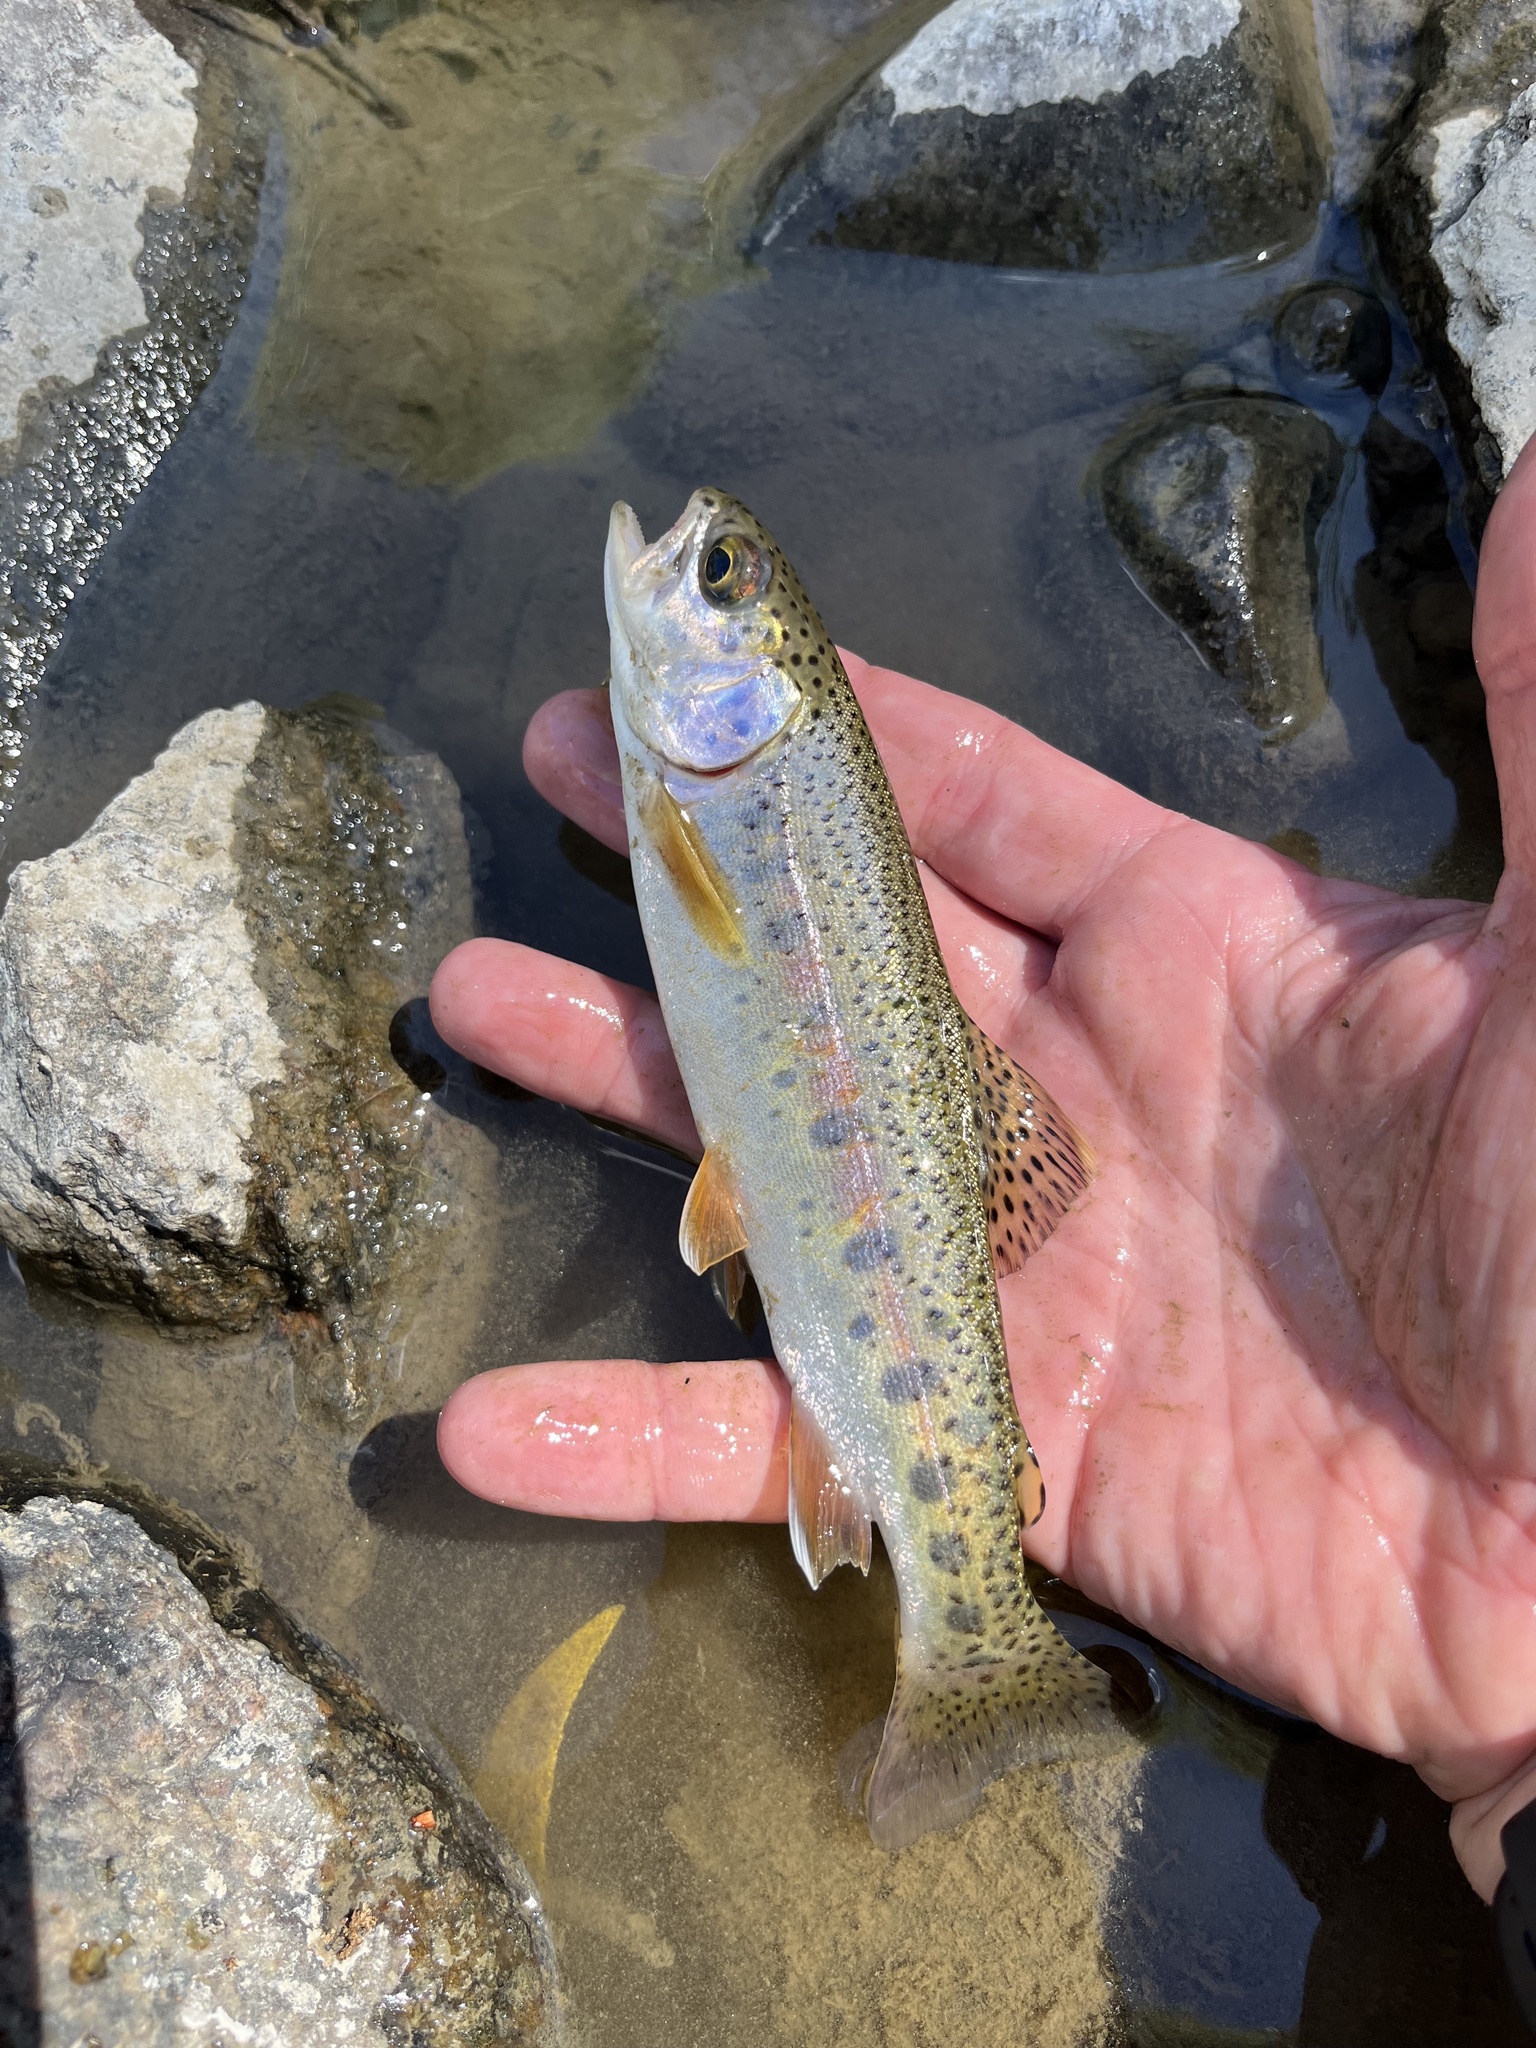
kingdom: Animalia
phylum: Chordata
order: Salmoniformes
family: Salmonidae
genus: Oncorhynchus
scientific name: Oncorhynchus mykiss
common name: Rainbow trout
